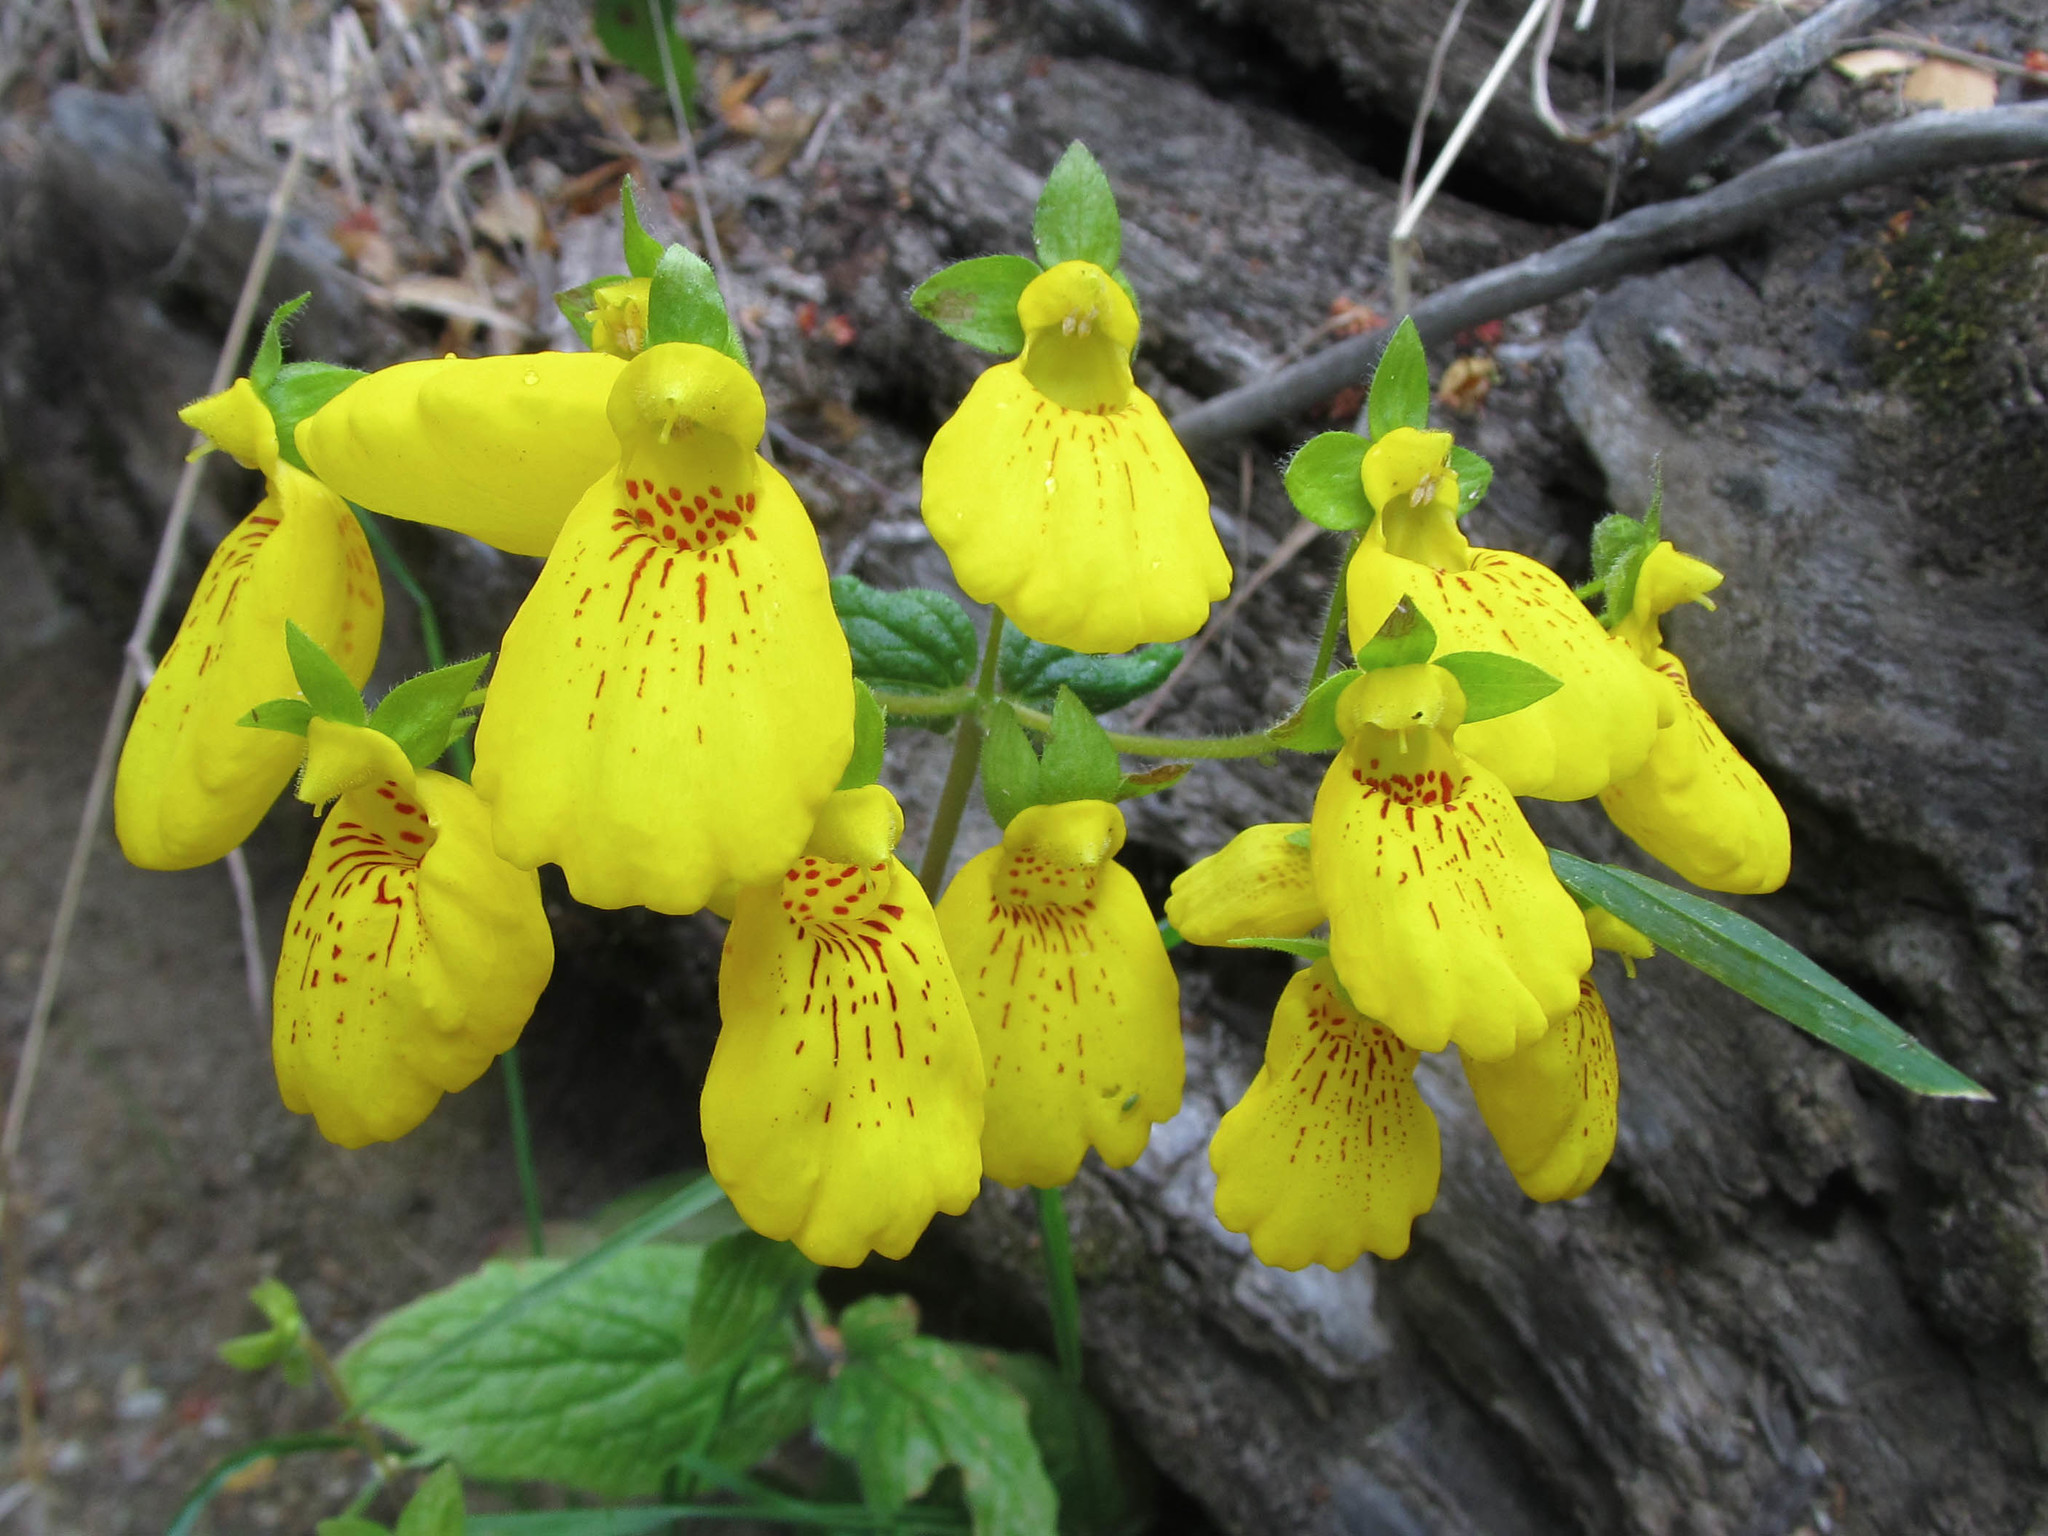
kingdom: Plantae
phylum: Tracheophyta
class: Magnoliopsida
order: Lamiales
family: Calceolariaceae
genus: Calceolaria
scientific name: Calceolaria crenatiflora
